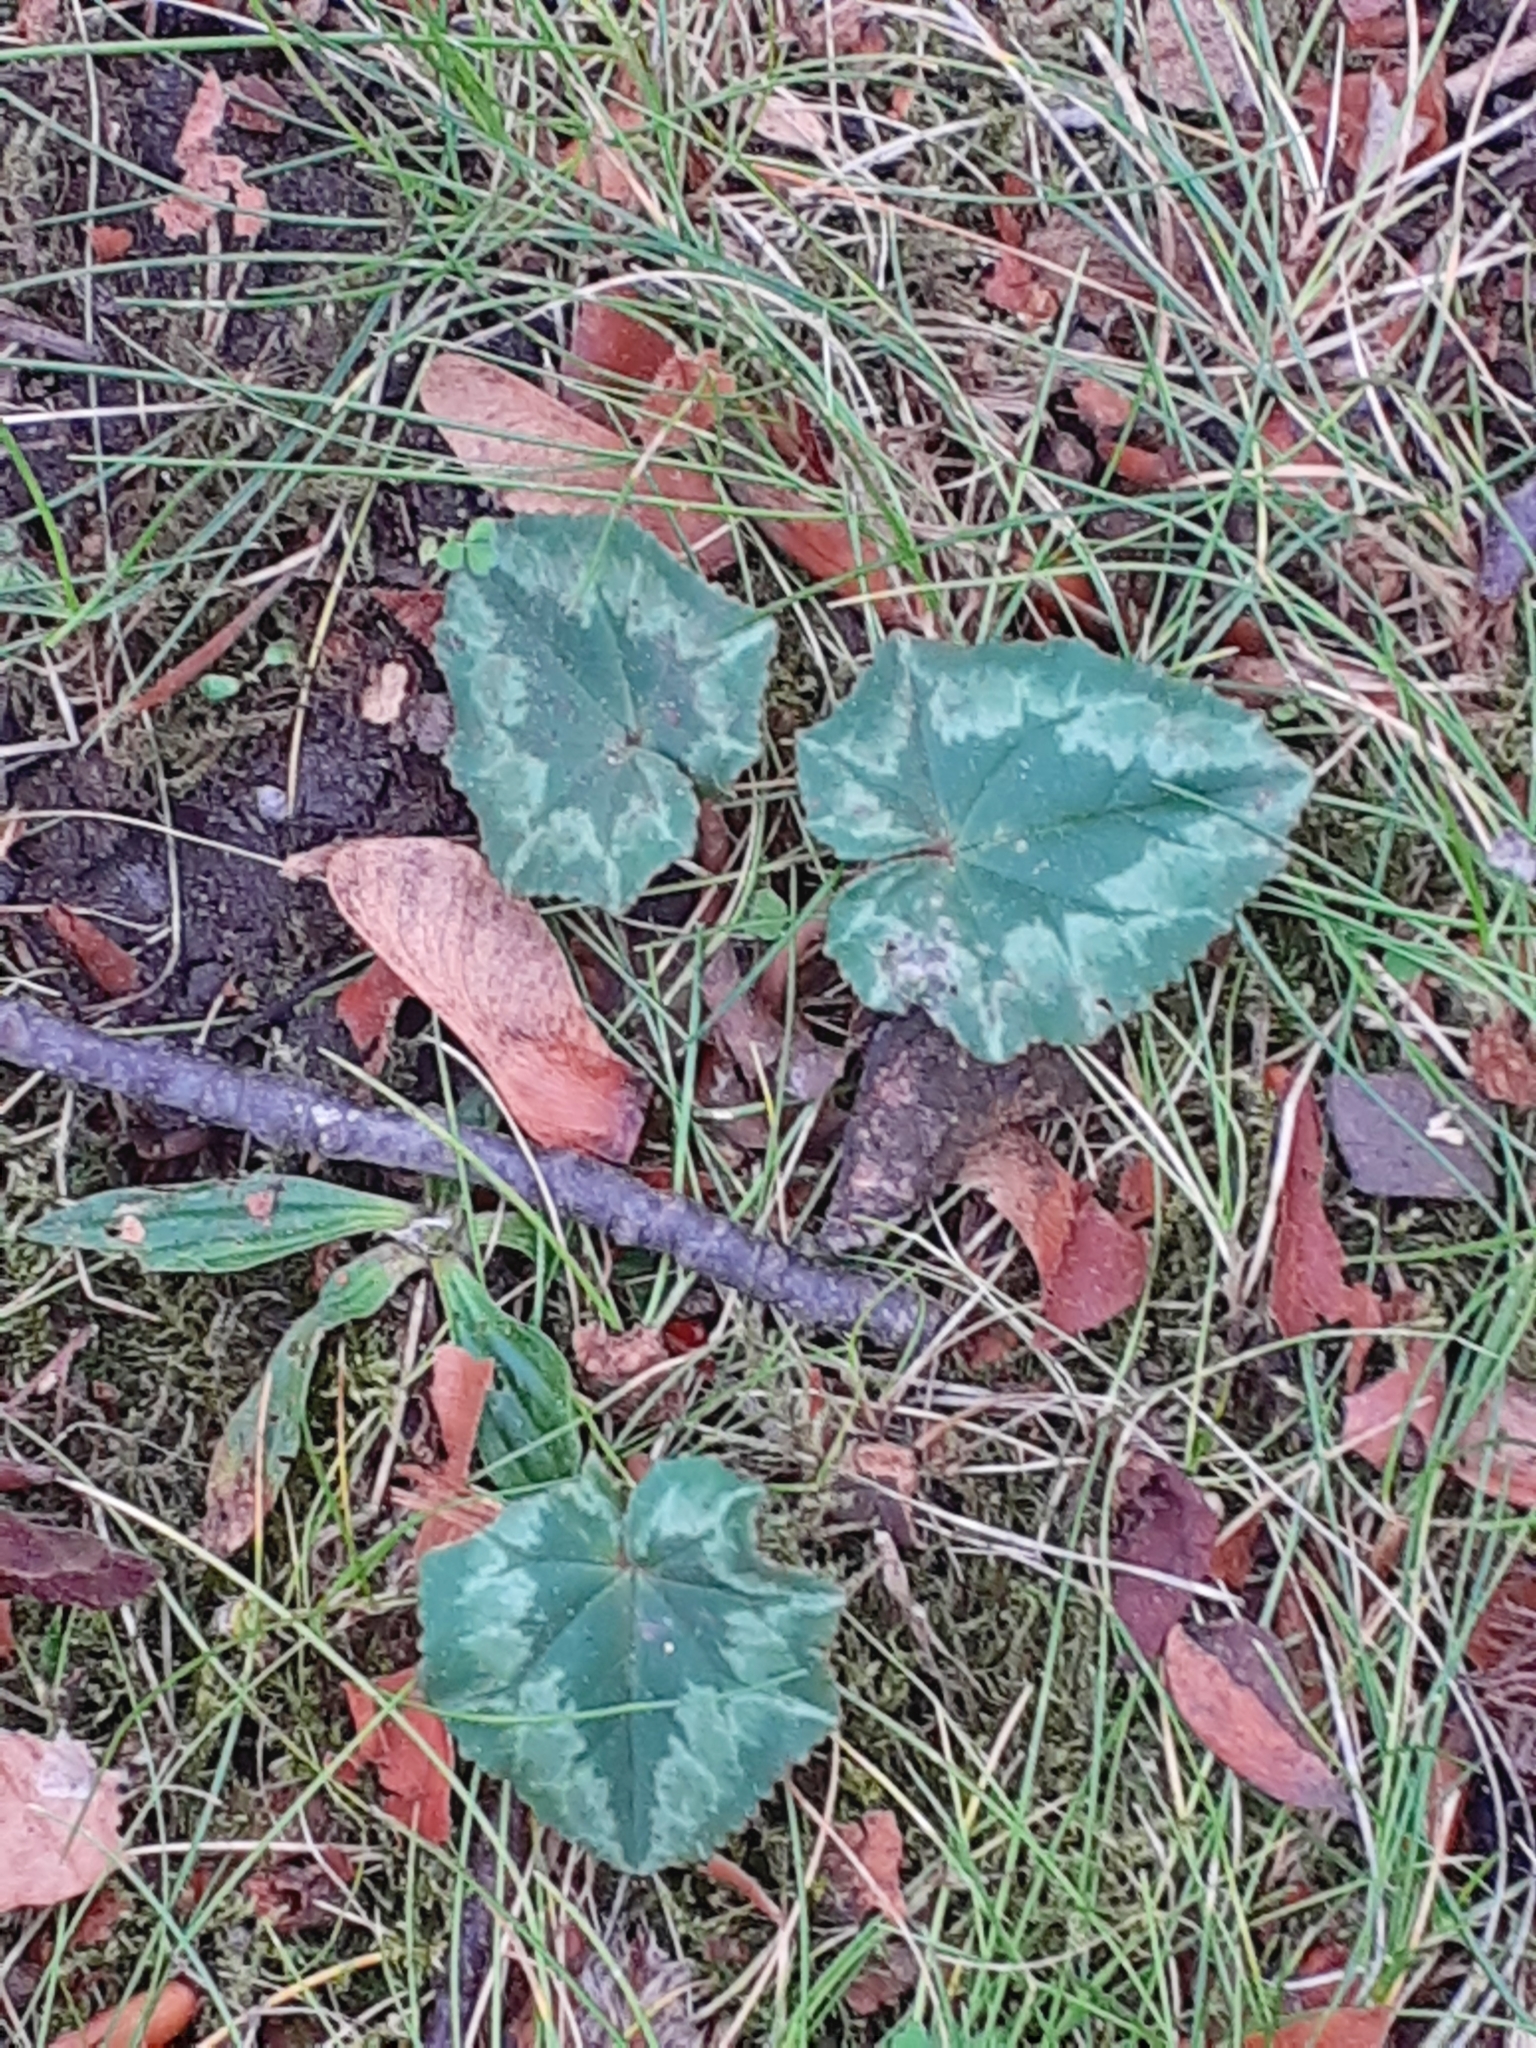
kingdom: Plantae
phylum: Tracheophyta
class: Magnoliopsida
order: Ericales
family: Primulaceae
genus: Cyclamen
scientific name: Cyclamen hederifolium
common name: Sowbread
